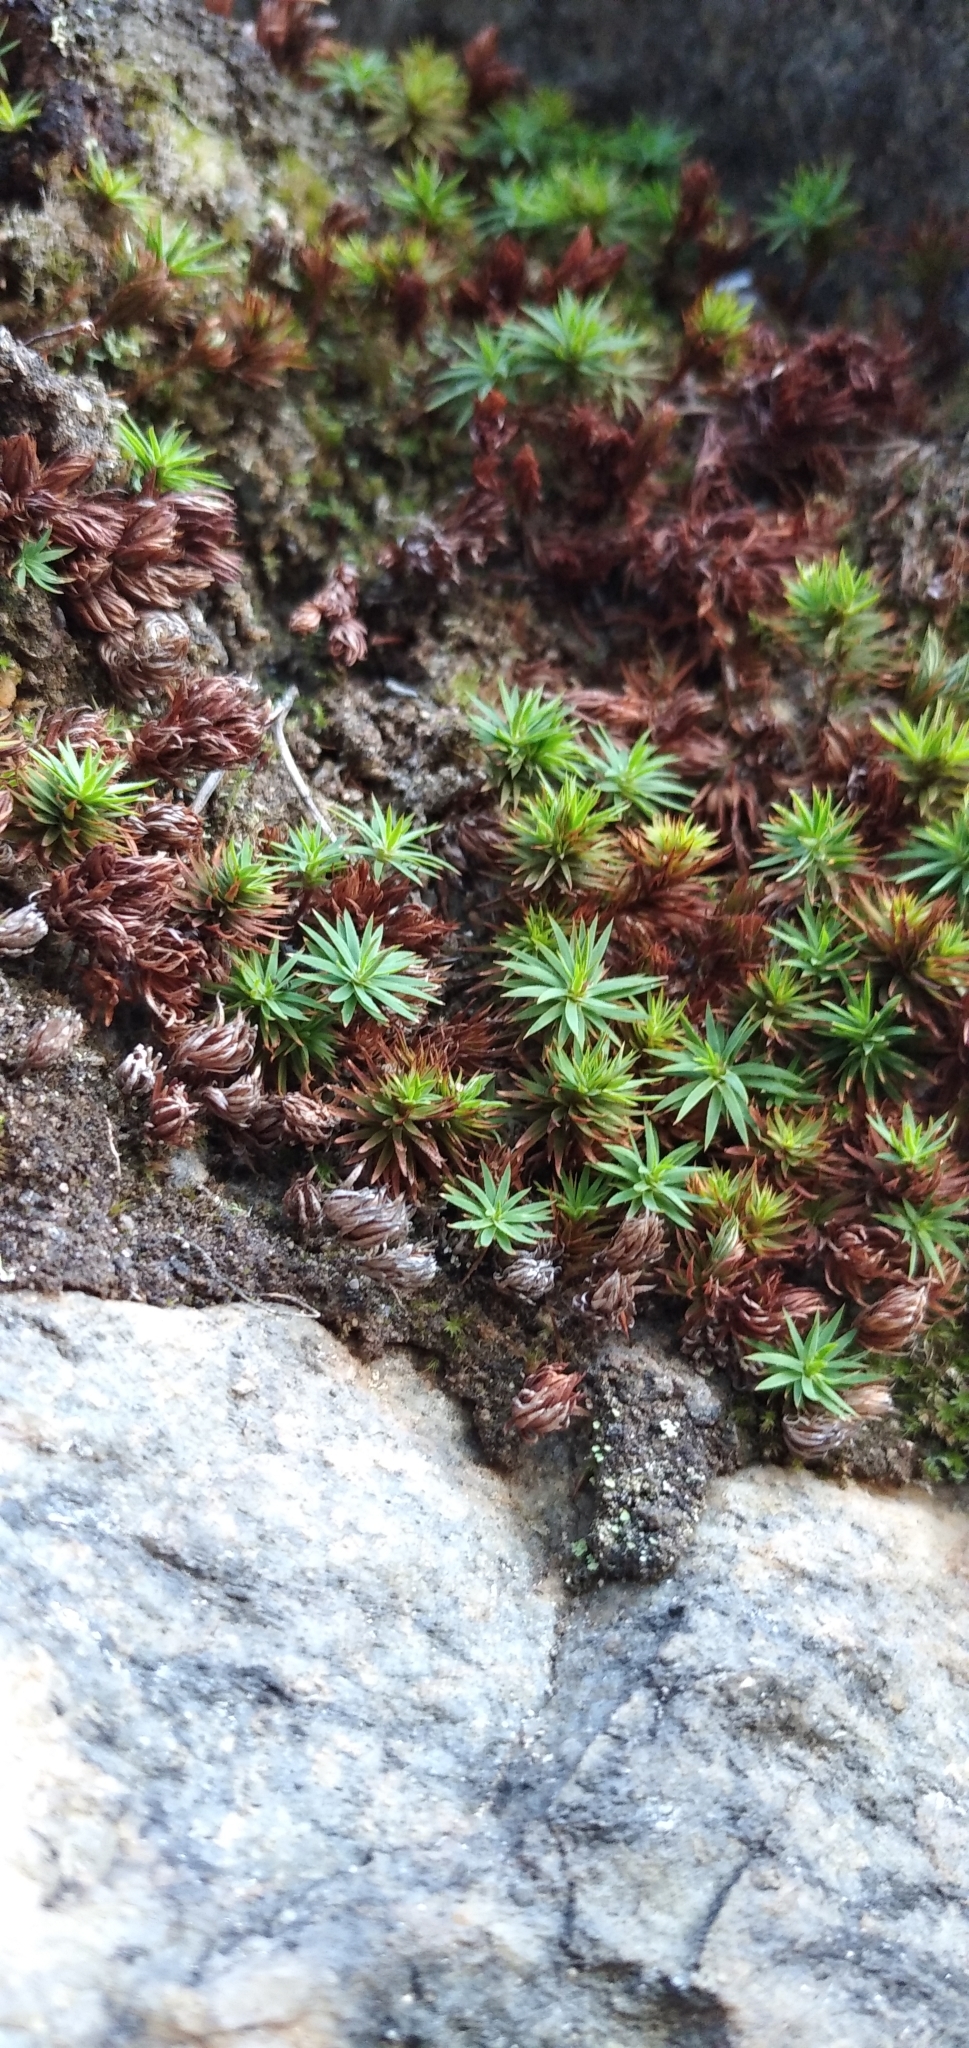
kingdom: Plantae
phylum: Bryophyta
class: Polytrichopsida
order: Polytrichales
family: Polytrichaceae
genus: Pogonatum
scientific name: Pogonatum urnigerum
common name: Urn hair moss
